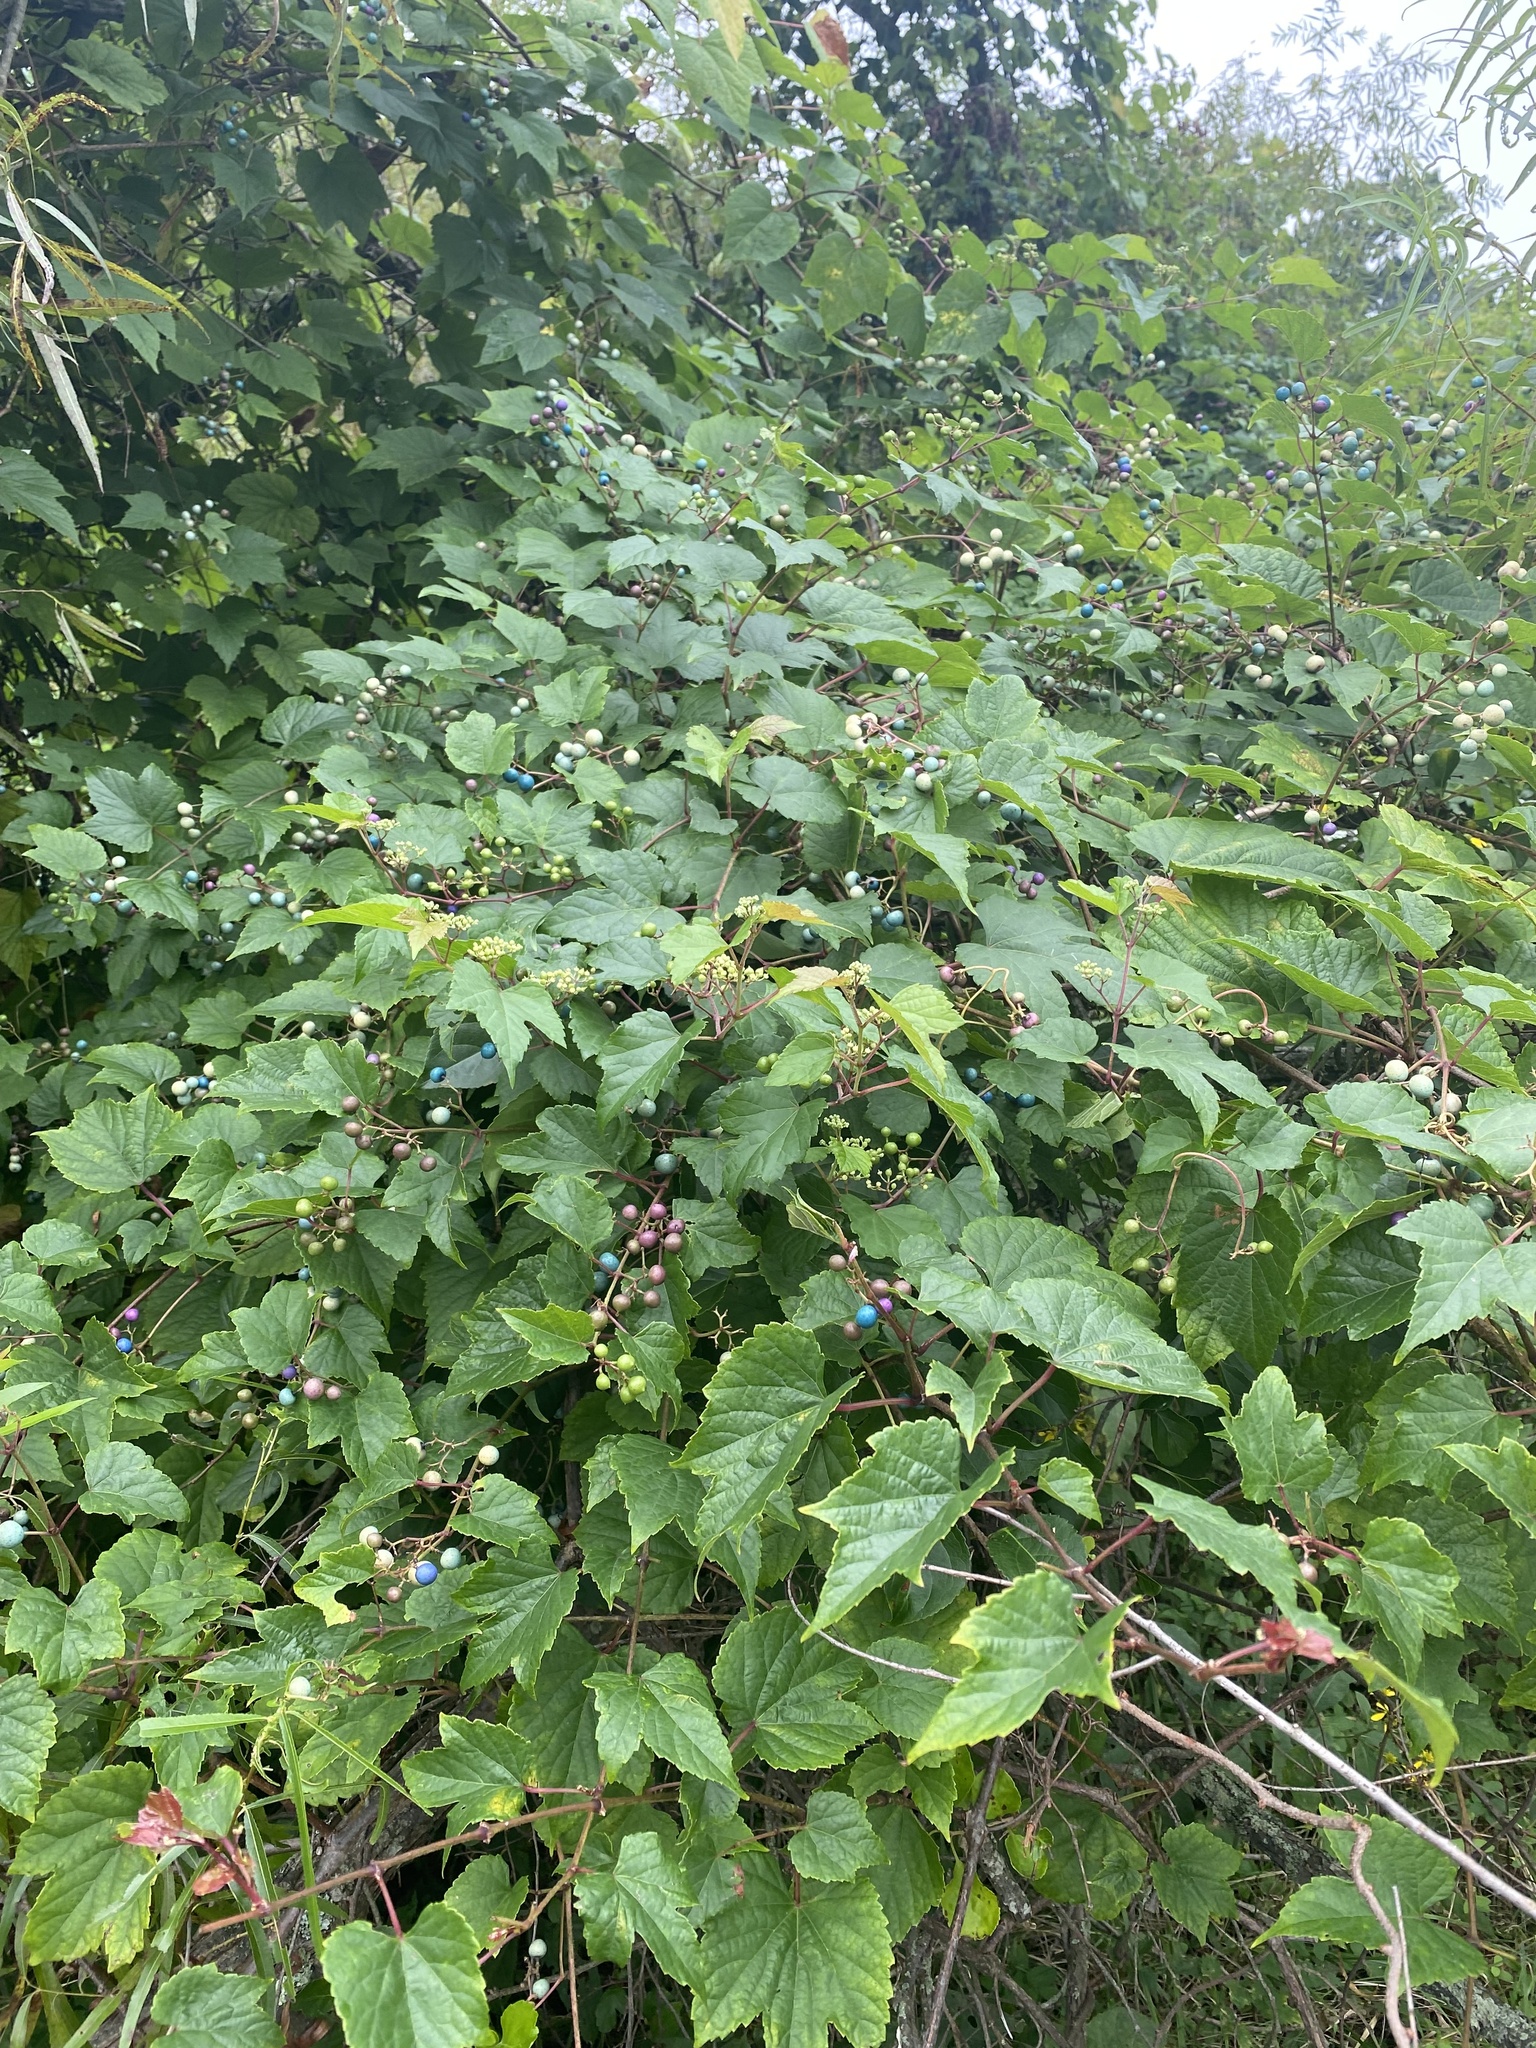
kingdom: Plantae
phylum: Tracheophyta
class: Magnoliopsida
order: Vitales
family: Vitaceae
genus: Ampelopsis
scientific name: Ampelopsis glandulosa
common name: Amur peppervine
